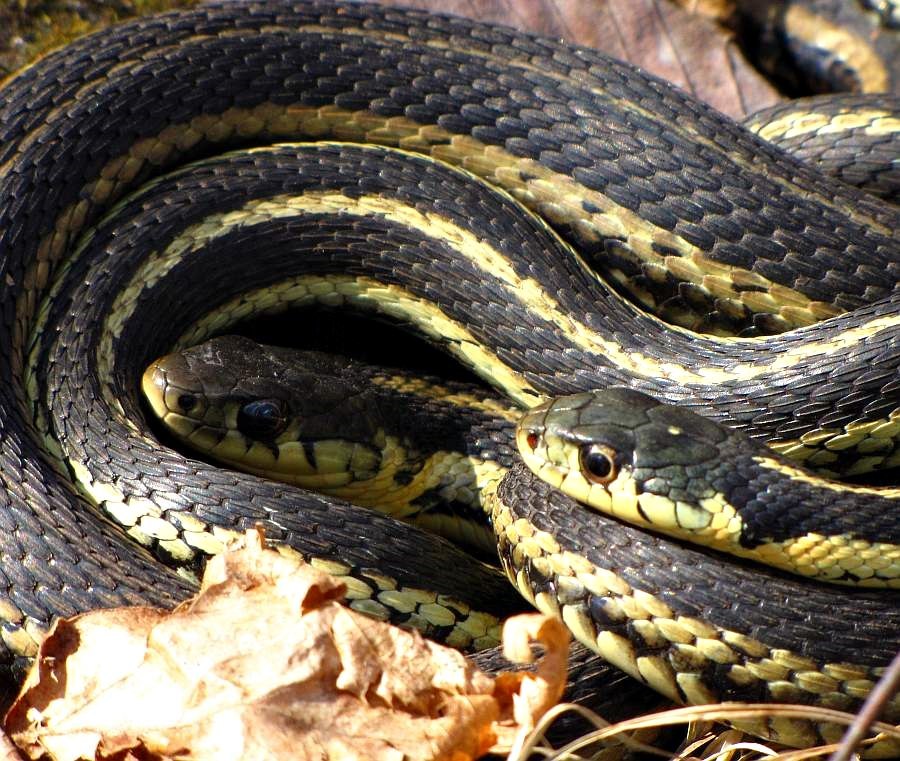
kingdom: Animalia
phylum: Chordata
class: Squamata
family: Colubridae
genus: Thamnophis
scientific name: Thamnophis sirtalis
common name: Common garter snake
